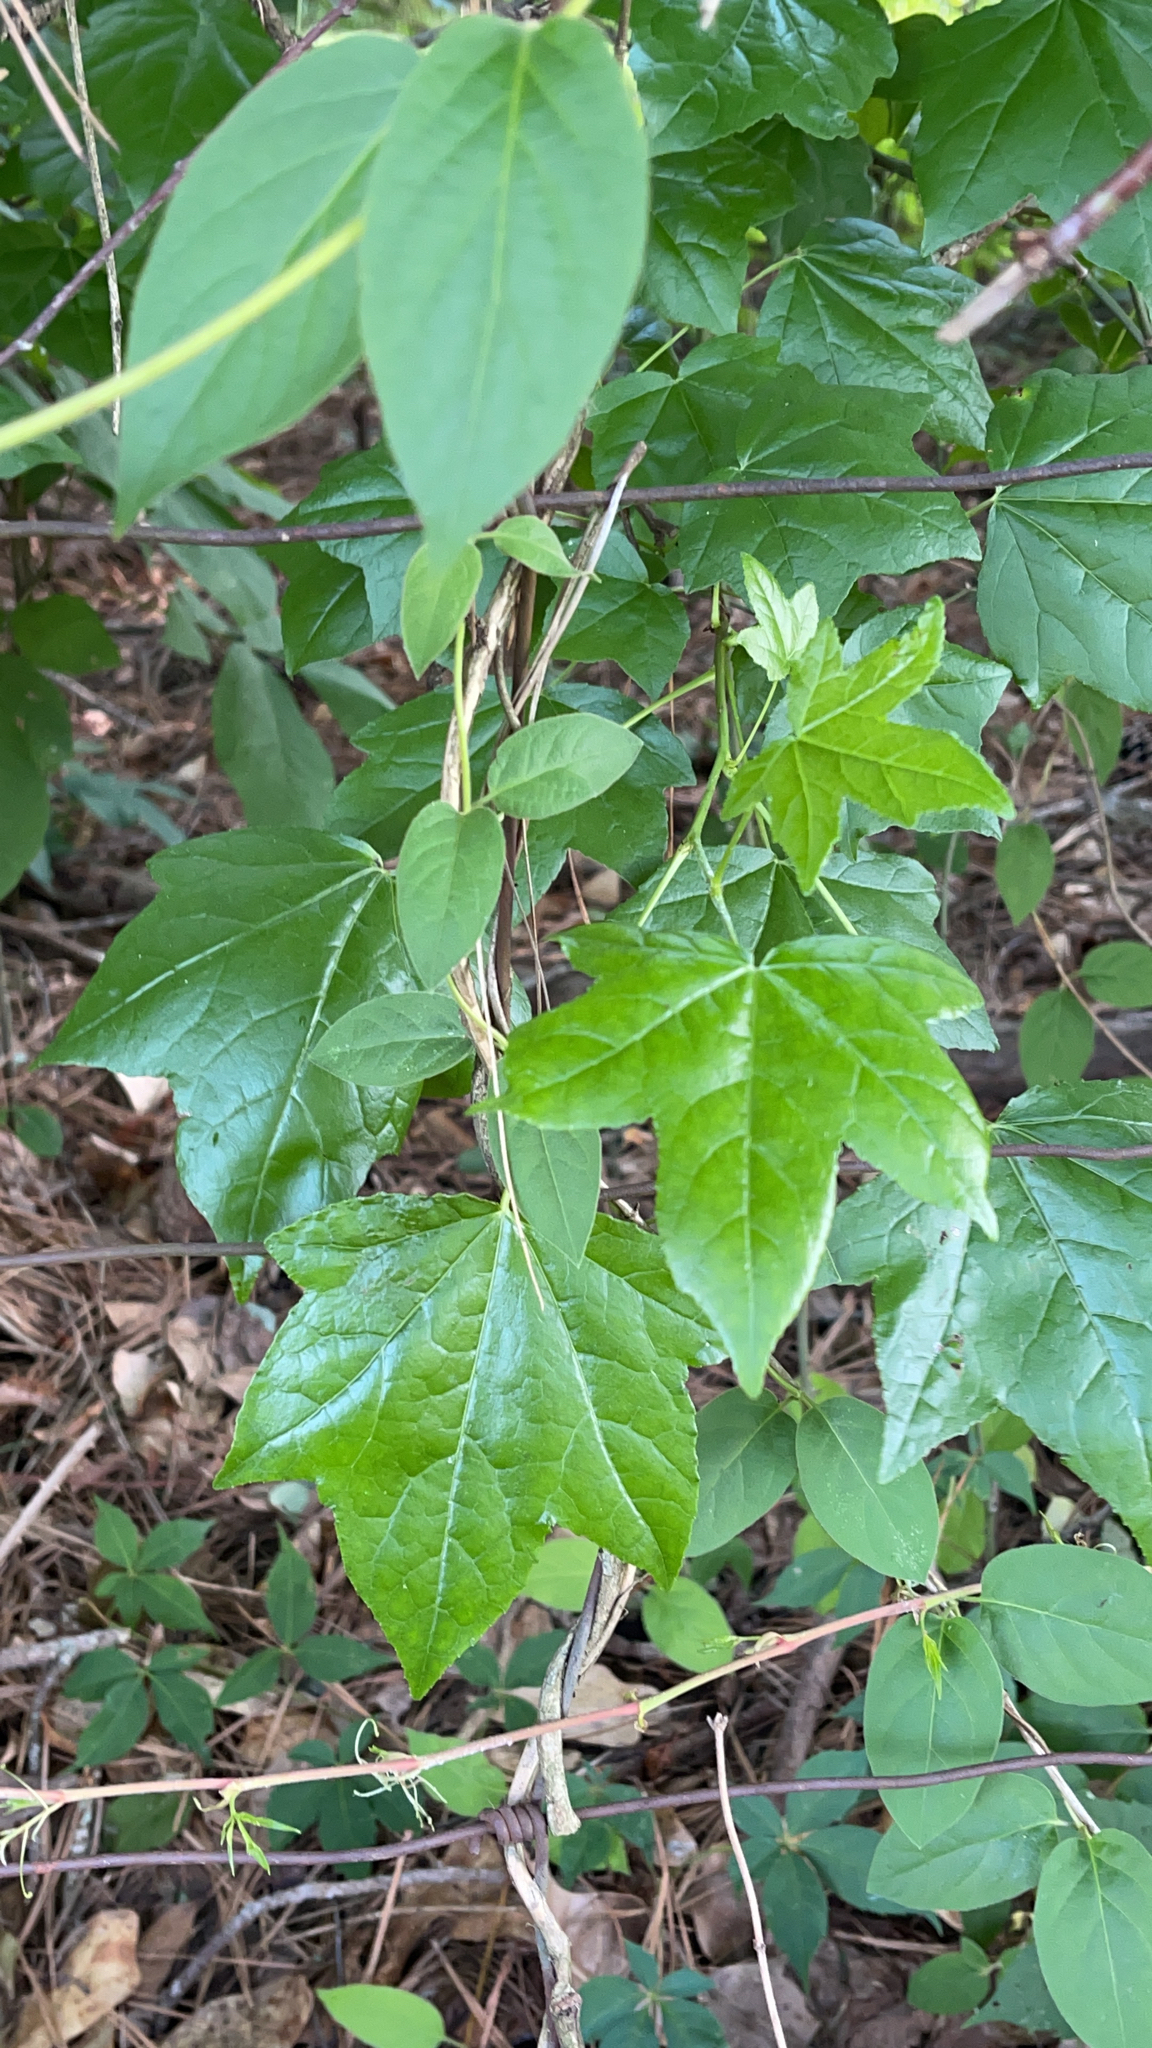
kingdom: Plantae
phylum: Tracheophyta
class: Magnoliopsida
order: Saxifragales
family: Altingiaceae
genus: Liquidambar
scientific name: Liquidambar styraciflua
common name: Sweet gum
